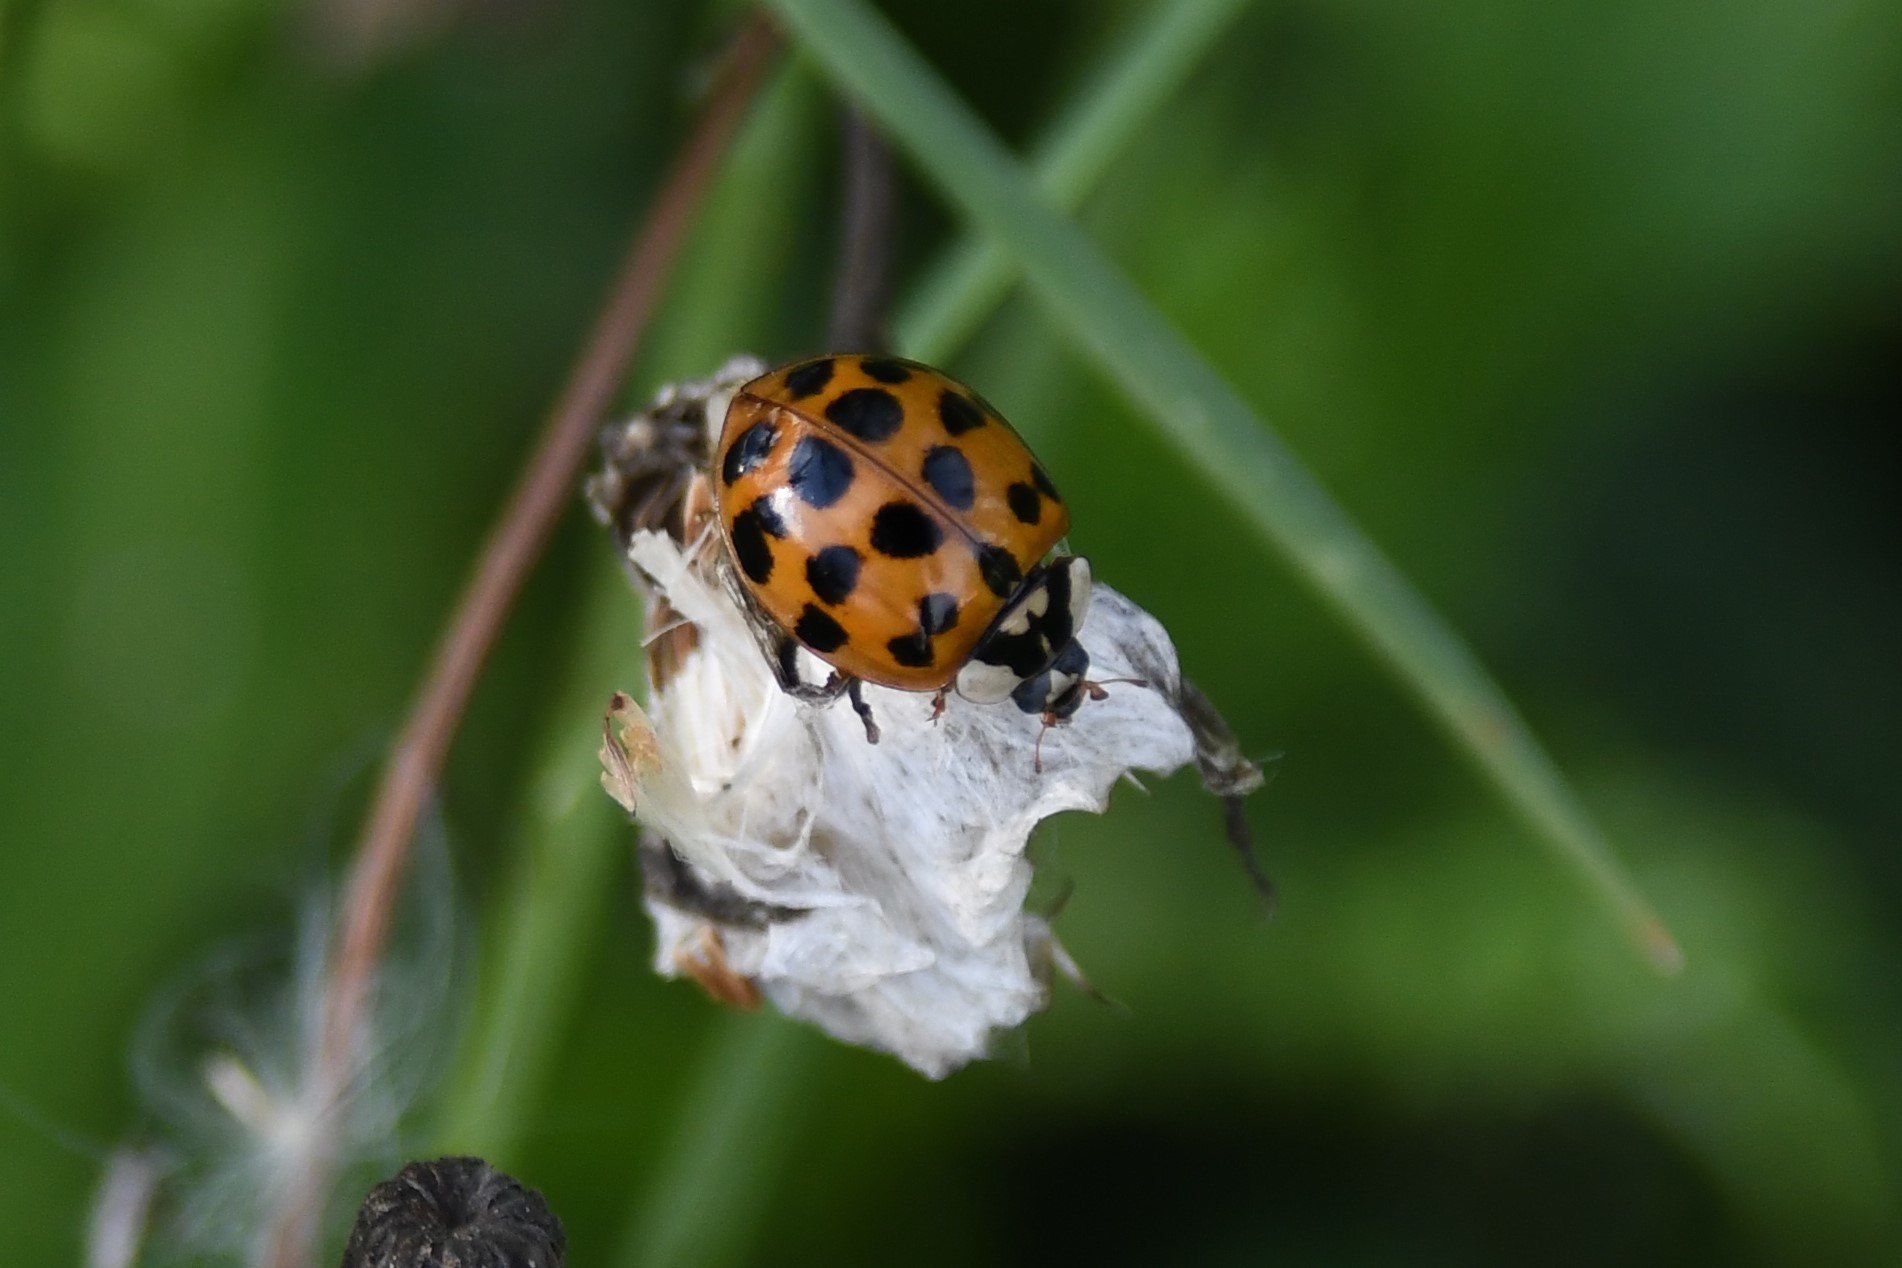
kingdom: Animalia
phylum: Arthropoda
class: Insecta
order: Coleoptera
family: Coccinellidae
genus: Harmonia
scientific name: Harmonia axyridis
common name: Harlequin ladybird
